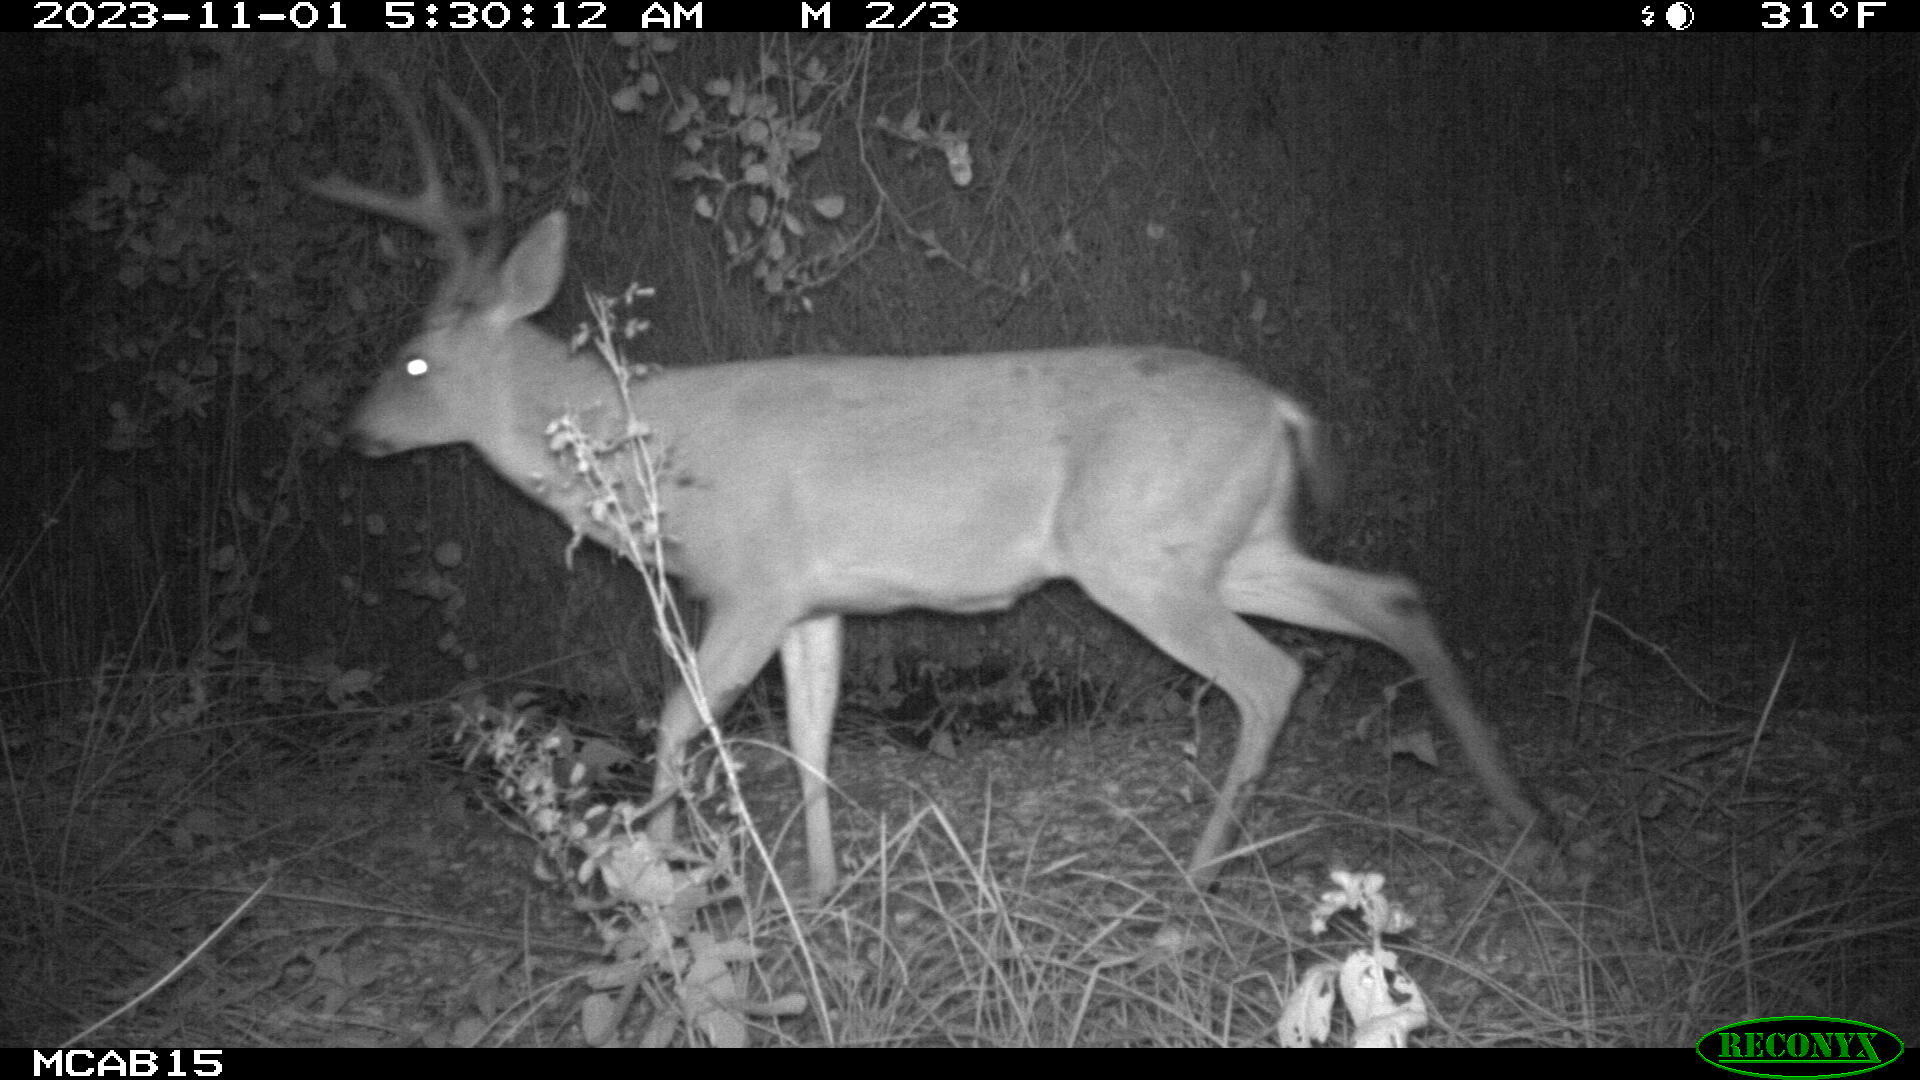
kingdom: Animalia
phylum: Chordata
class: Mammalia
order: Artiodactyla
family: Cervidae
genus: Odocoileus
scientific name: Odocoileus hemionus
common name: Mule deer
